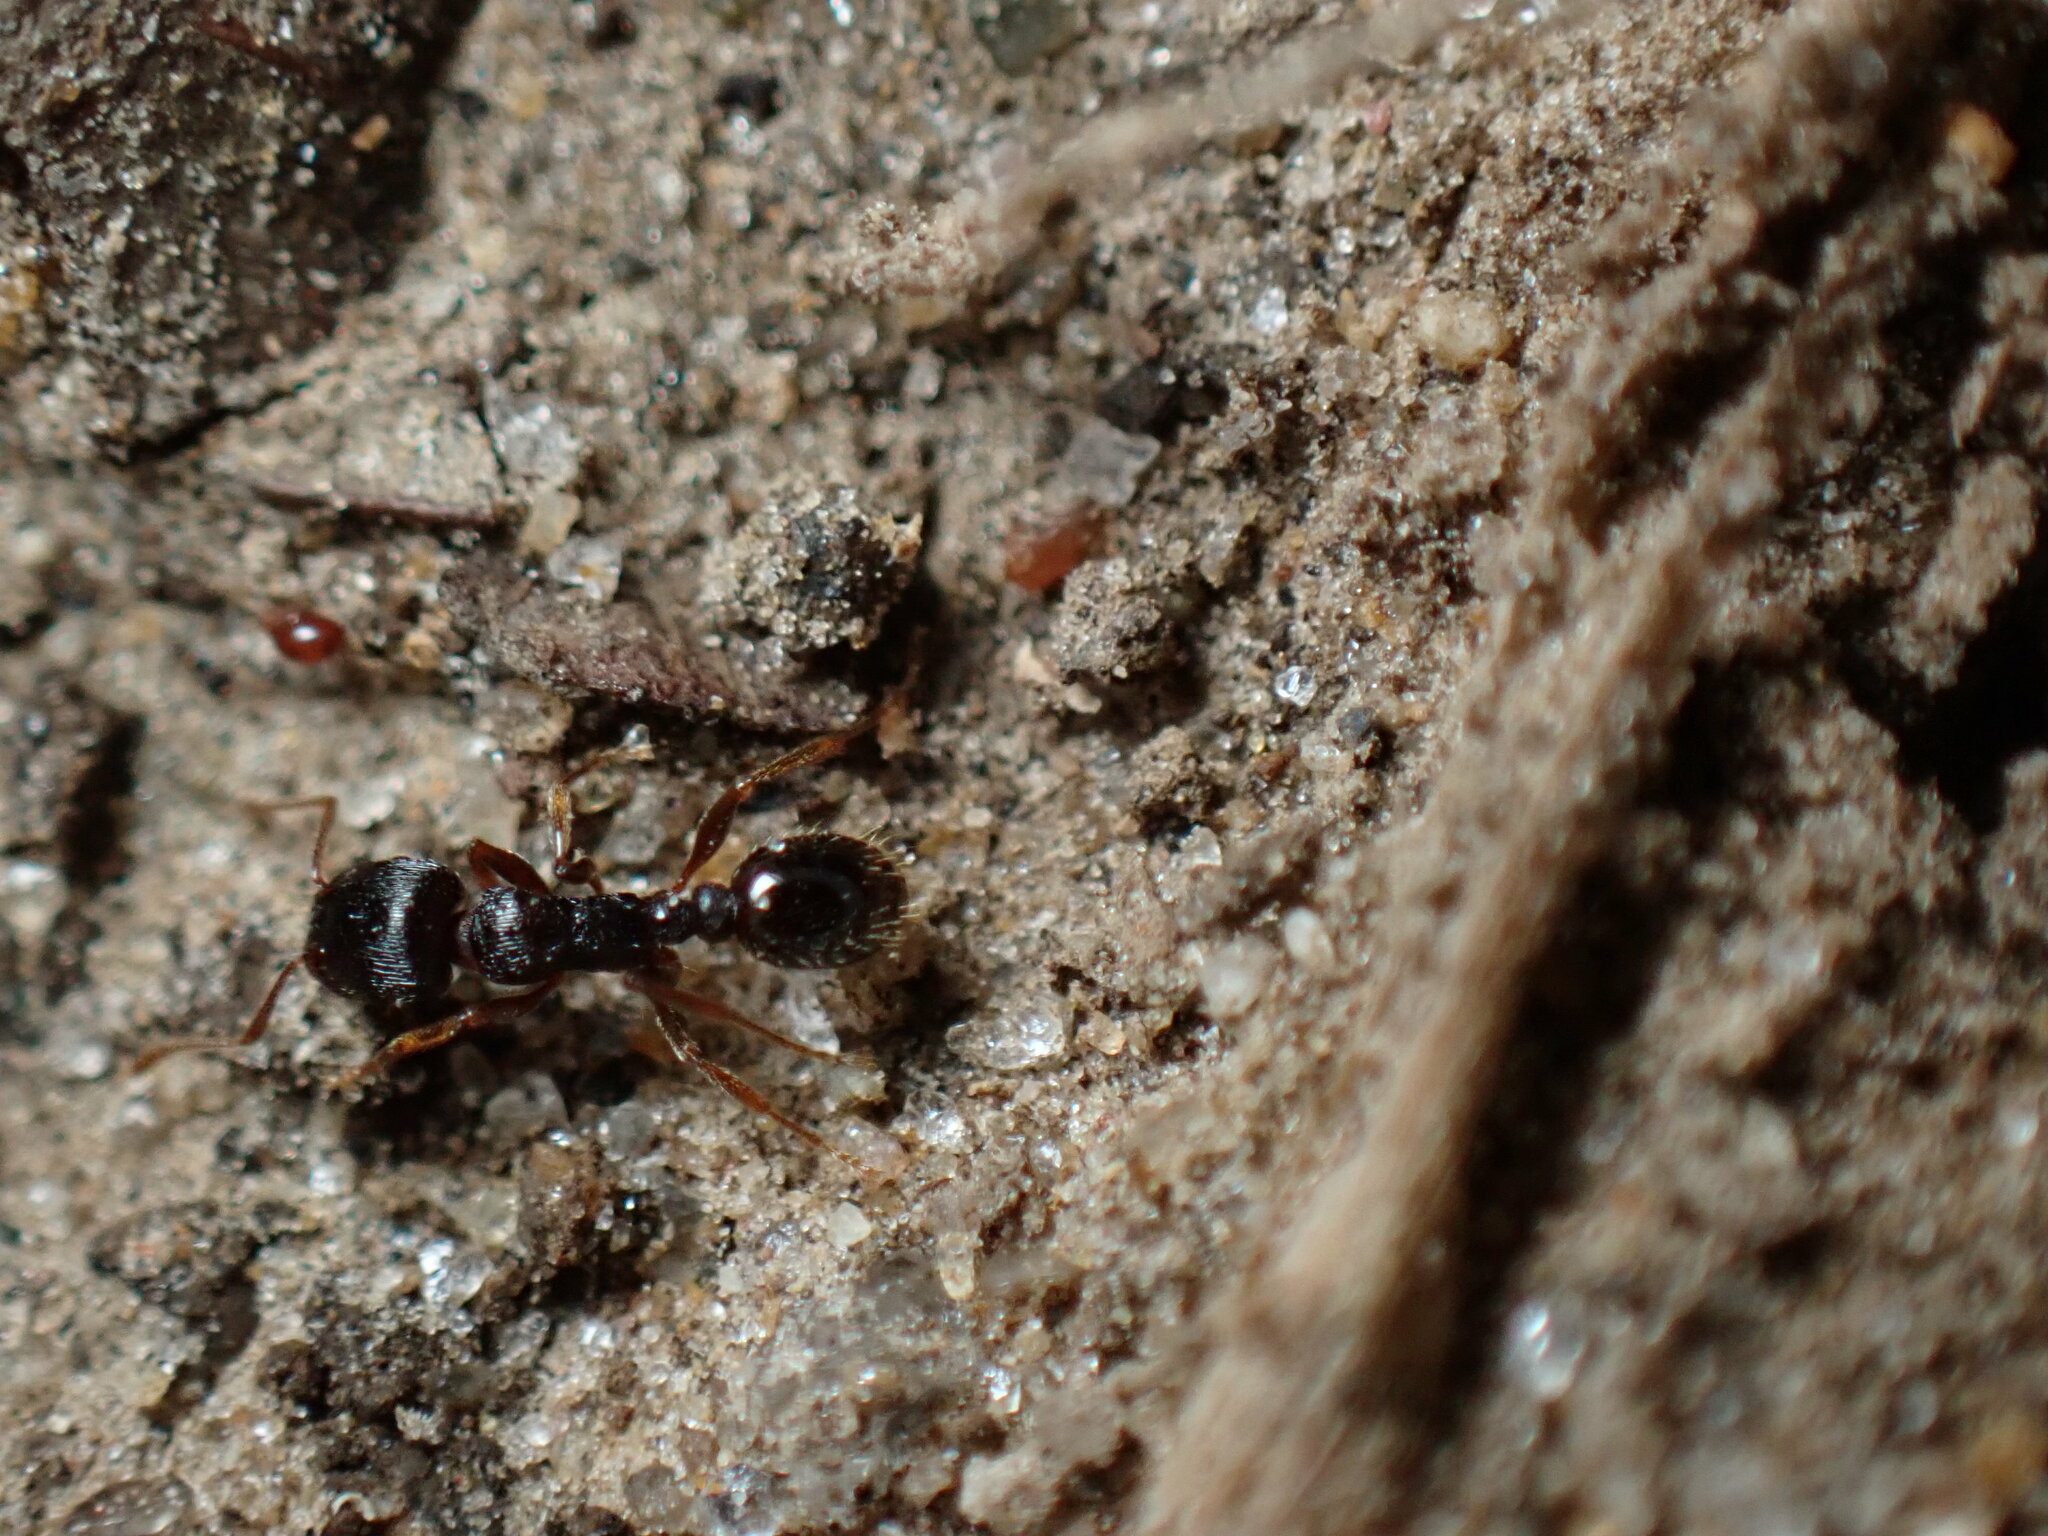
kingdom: Animalia
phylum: Arthropoda
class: Insecta
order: Hymenoptera
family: Formicidae
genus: Tetramorium
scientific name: Tetramorium immigrans
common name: Pavement ant
